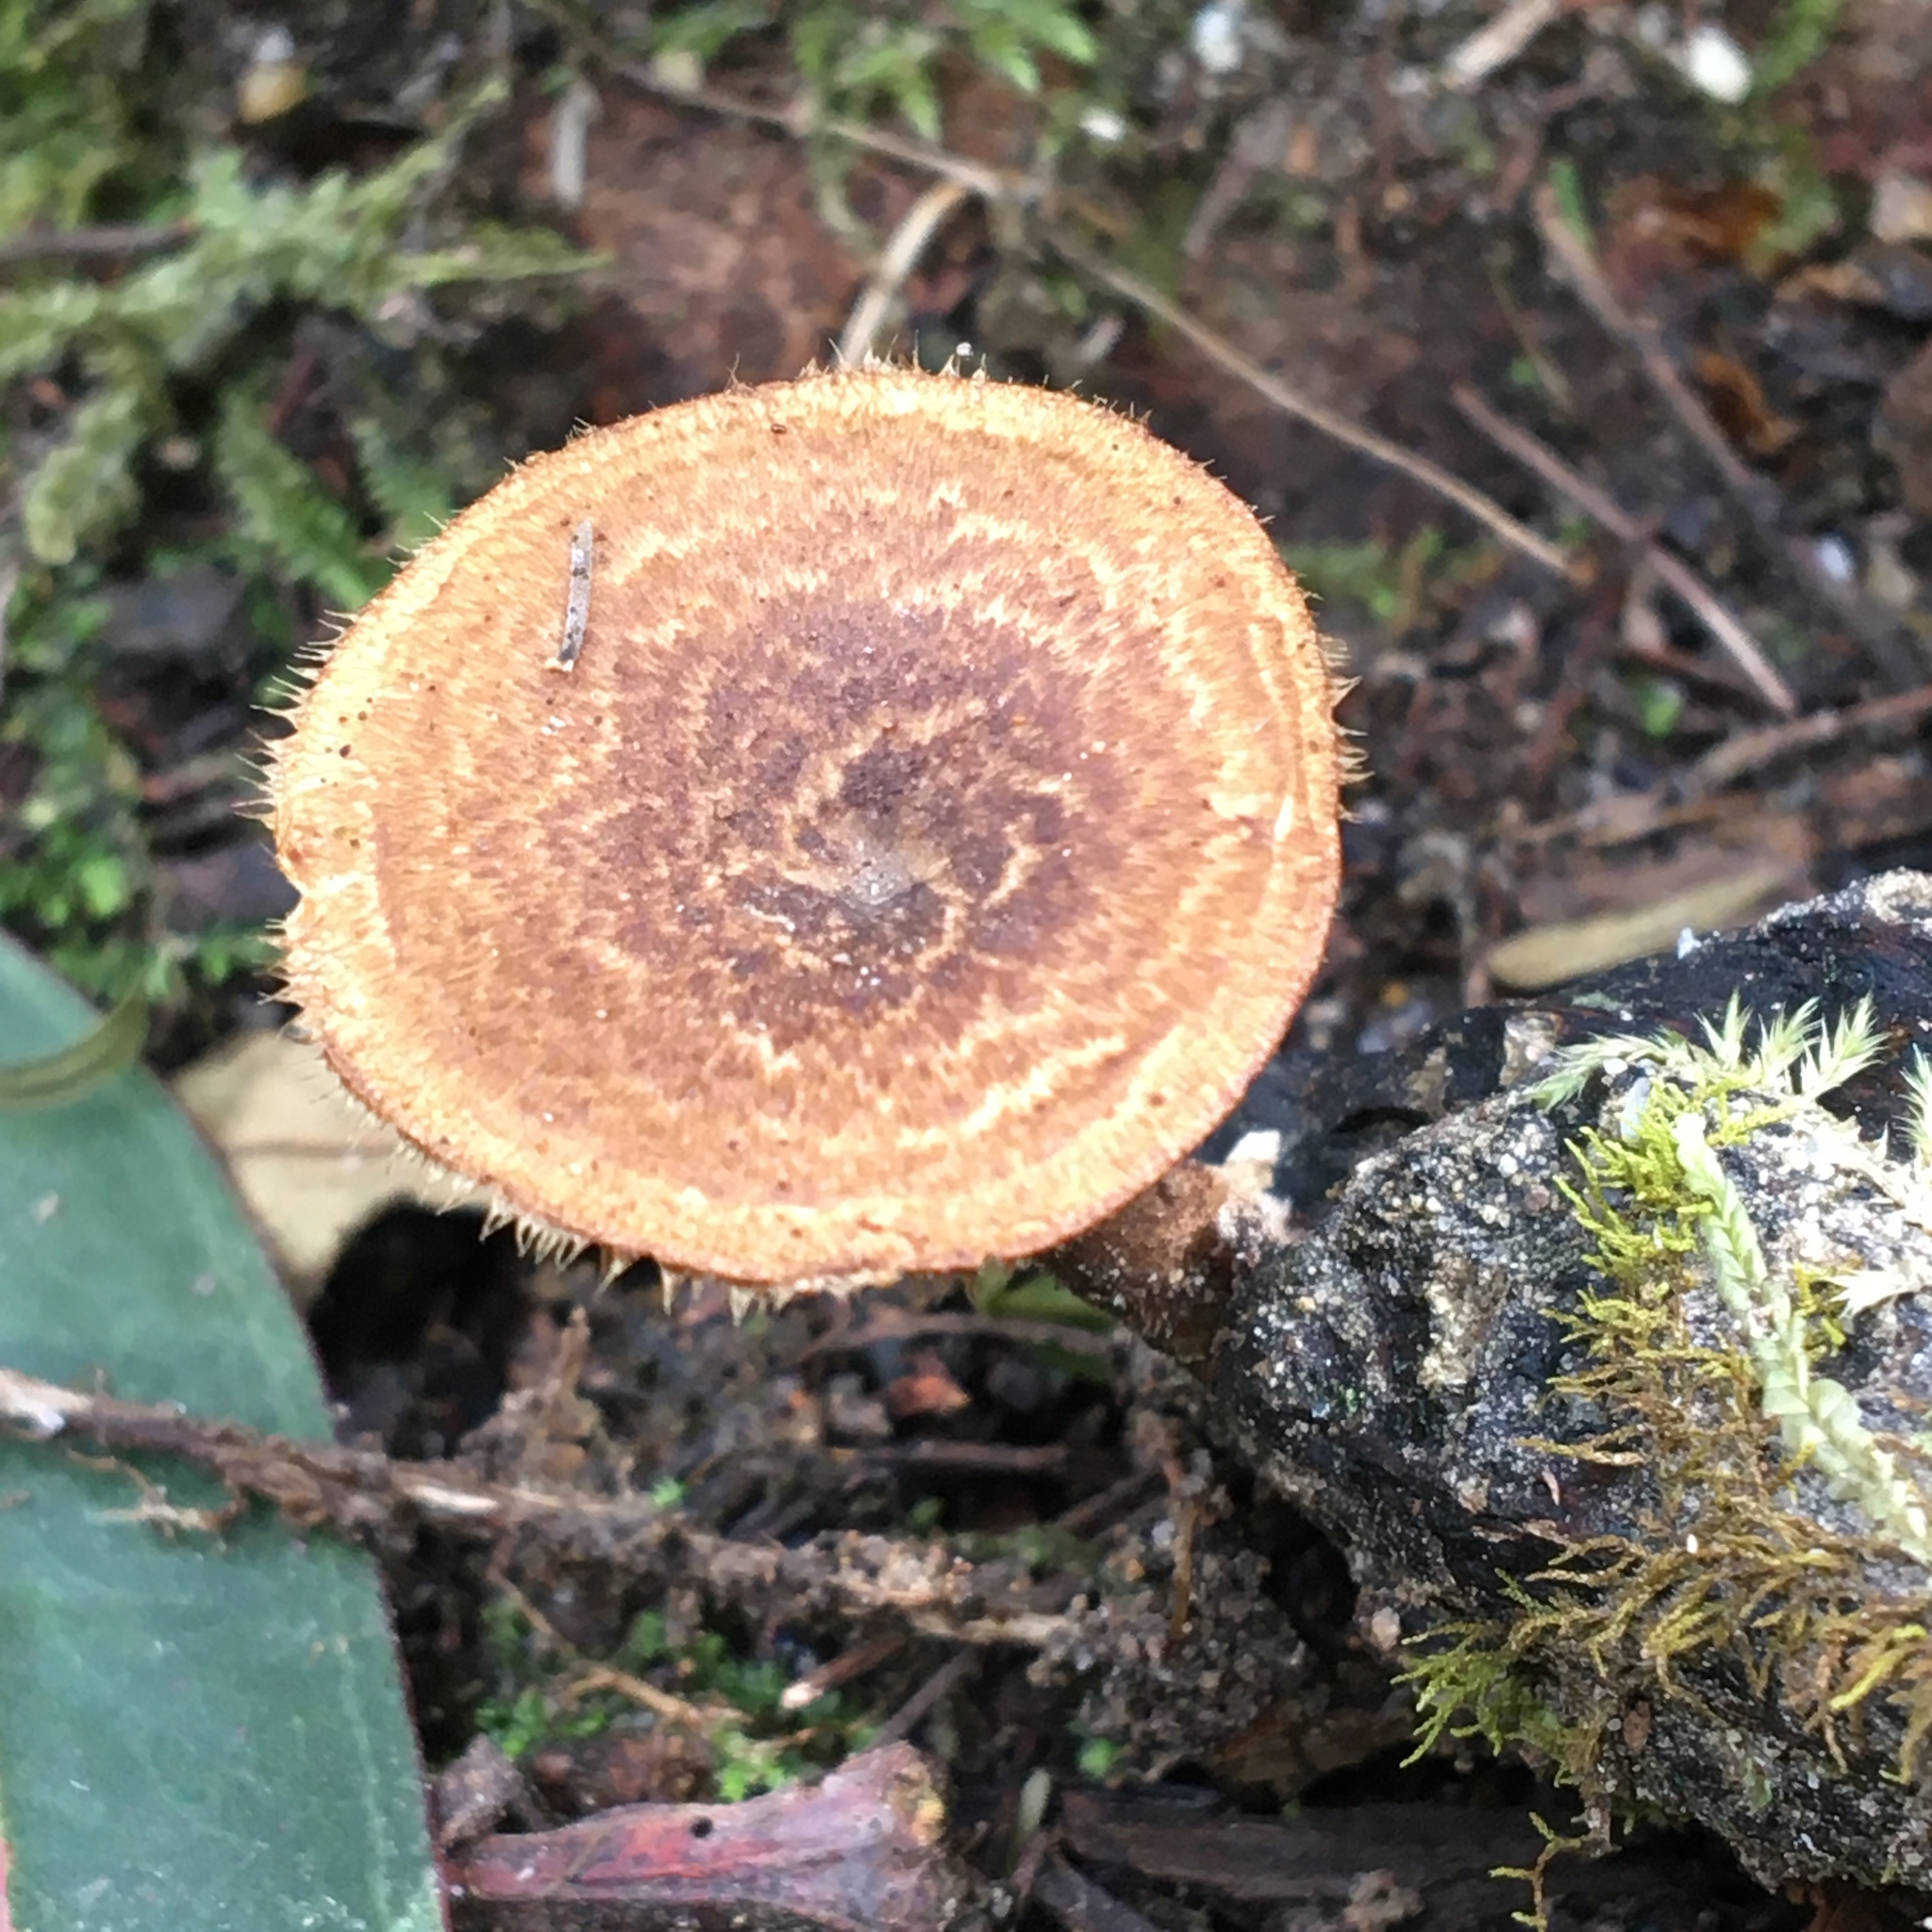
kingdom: Fungi
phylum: Basidiomycota
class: Agaricomycetes
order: Polyporales
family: Polyporaceae
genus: Lentinus
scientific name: Lentinus arcularius
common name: Spring polypore
